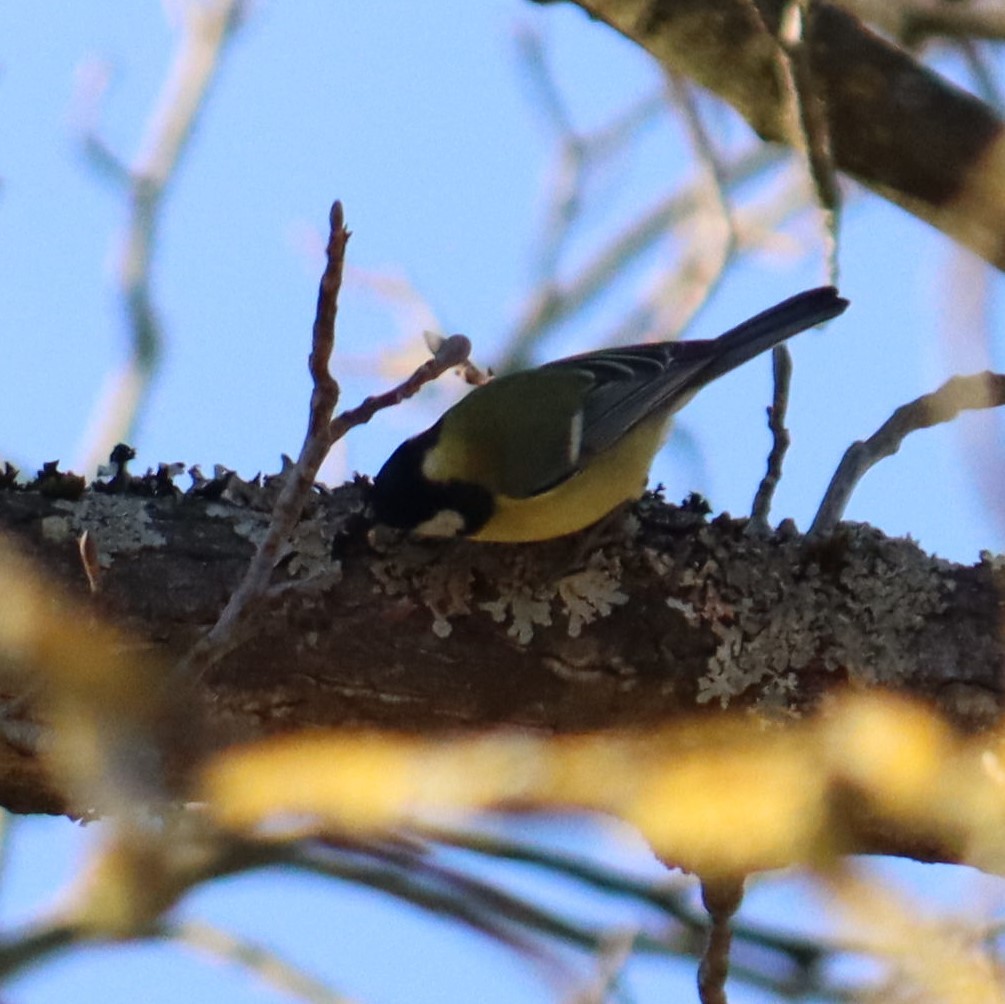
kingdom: Animalia
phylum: Chordata
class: Aves
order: Passeriformes
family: Paridae
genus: Parus
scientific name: Parus major
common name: Great tit
